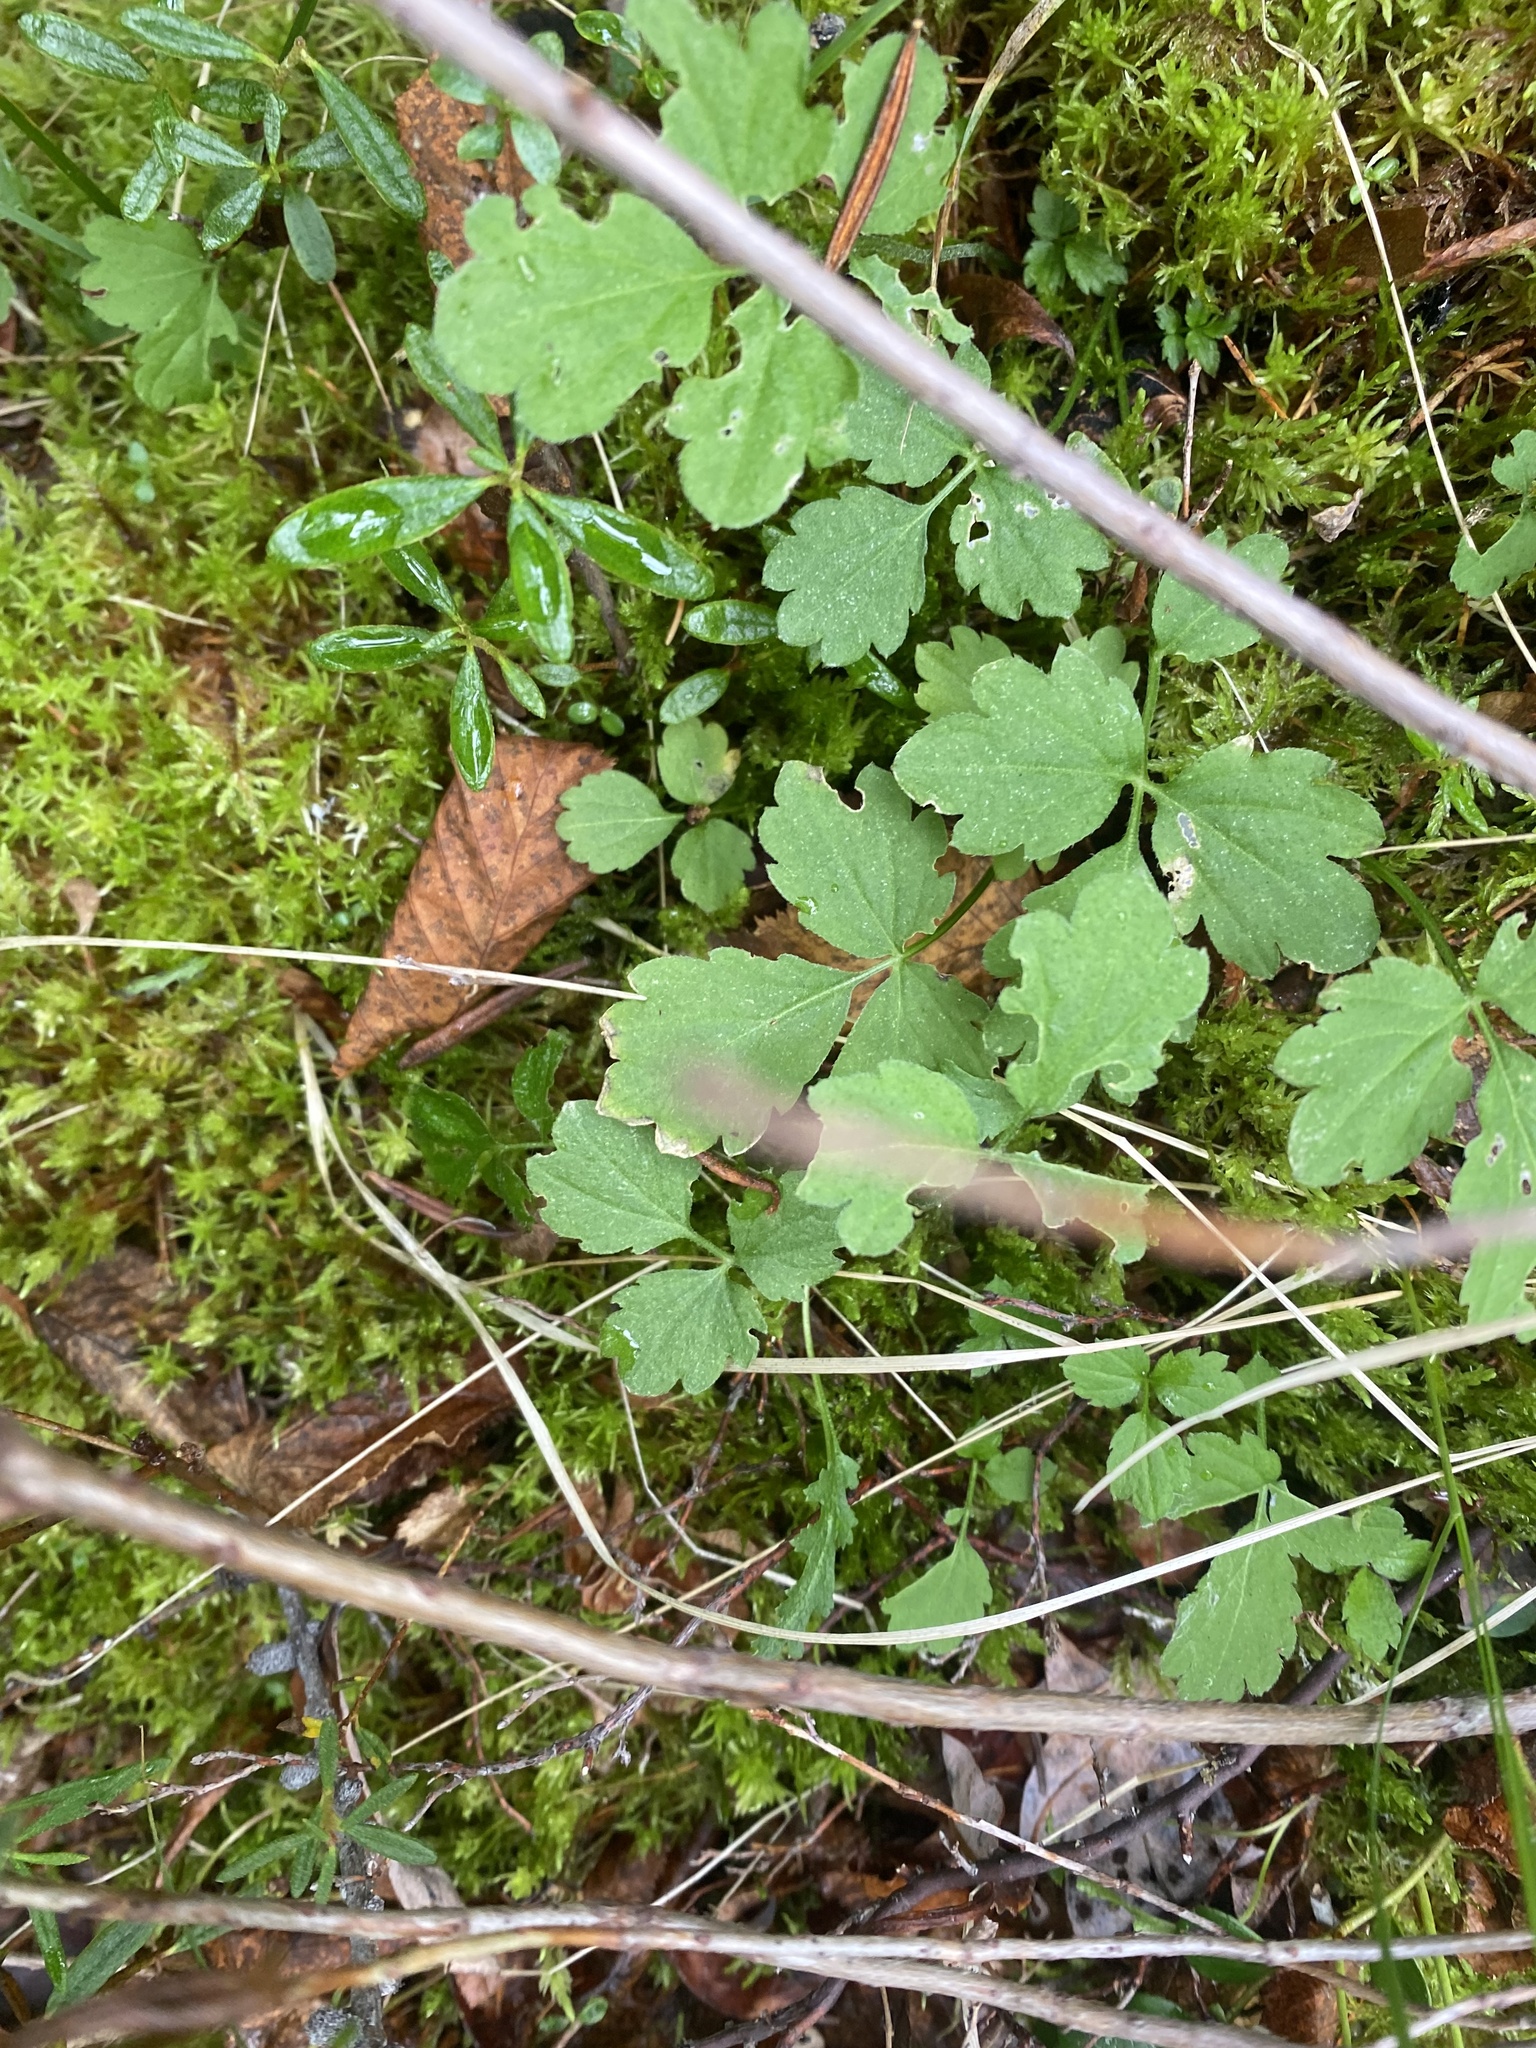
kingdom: Plantae
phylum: Tracheophyta
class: Magnoliopsida
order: Brassicales
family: Brassicaceae
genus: Cardamine
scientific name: Cardamine macrophylla
